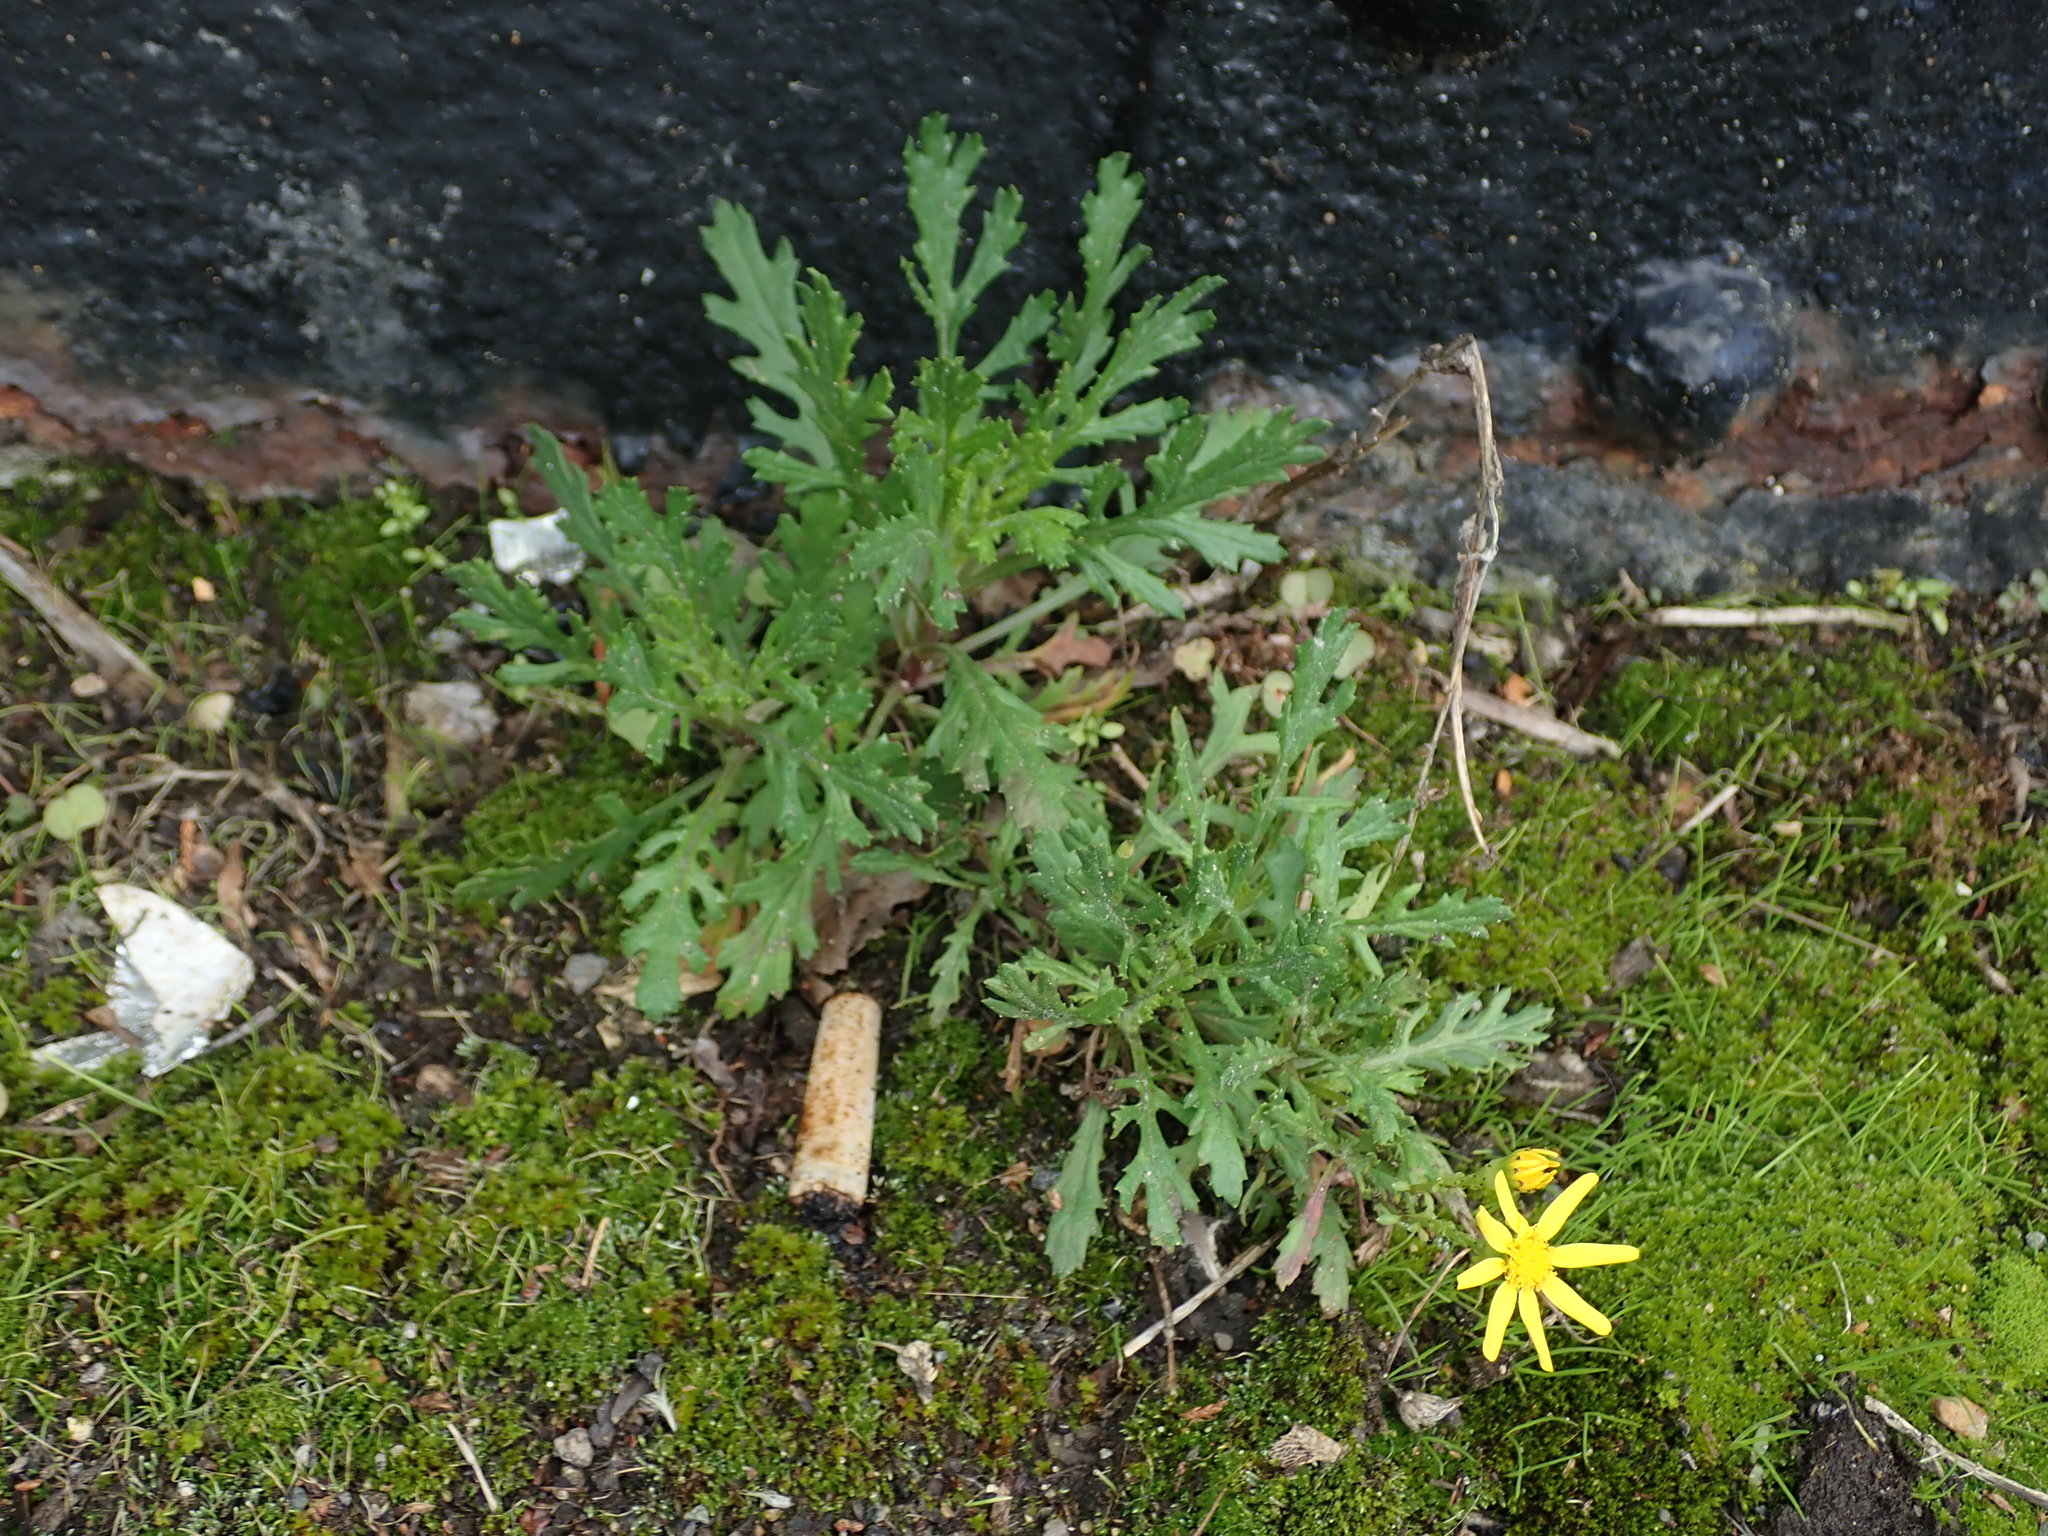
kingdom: Plantae
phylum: Tracheophyta
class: Magnoliopsida
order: Asterales
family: Asteraceae
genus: Senecio
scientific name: Senecio squalidus
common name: Oxford ragwort
